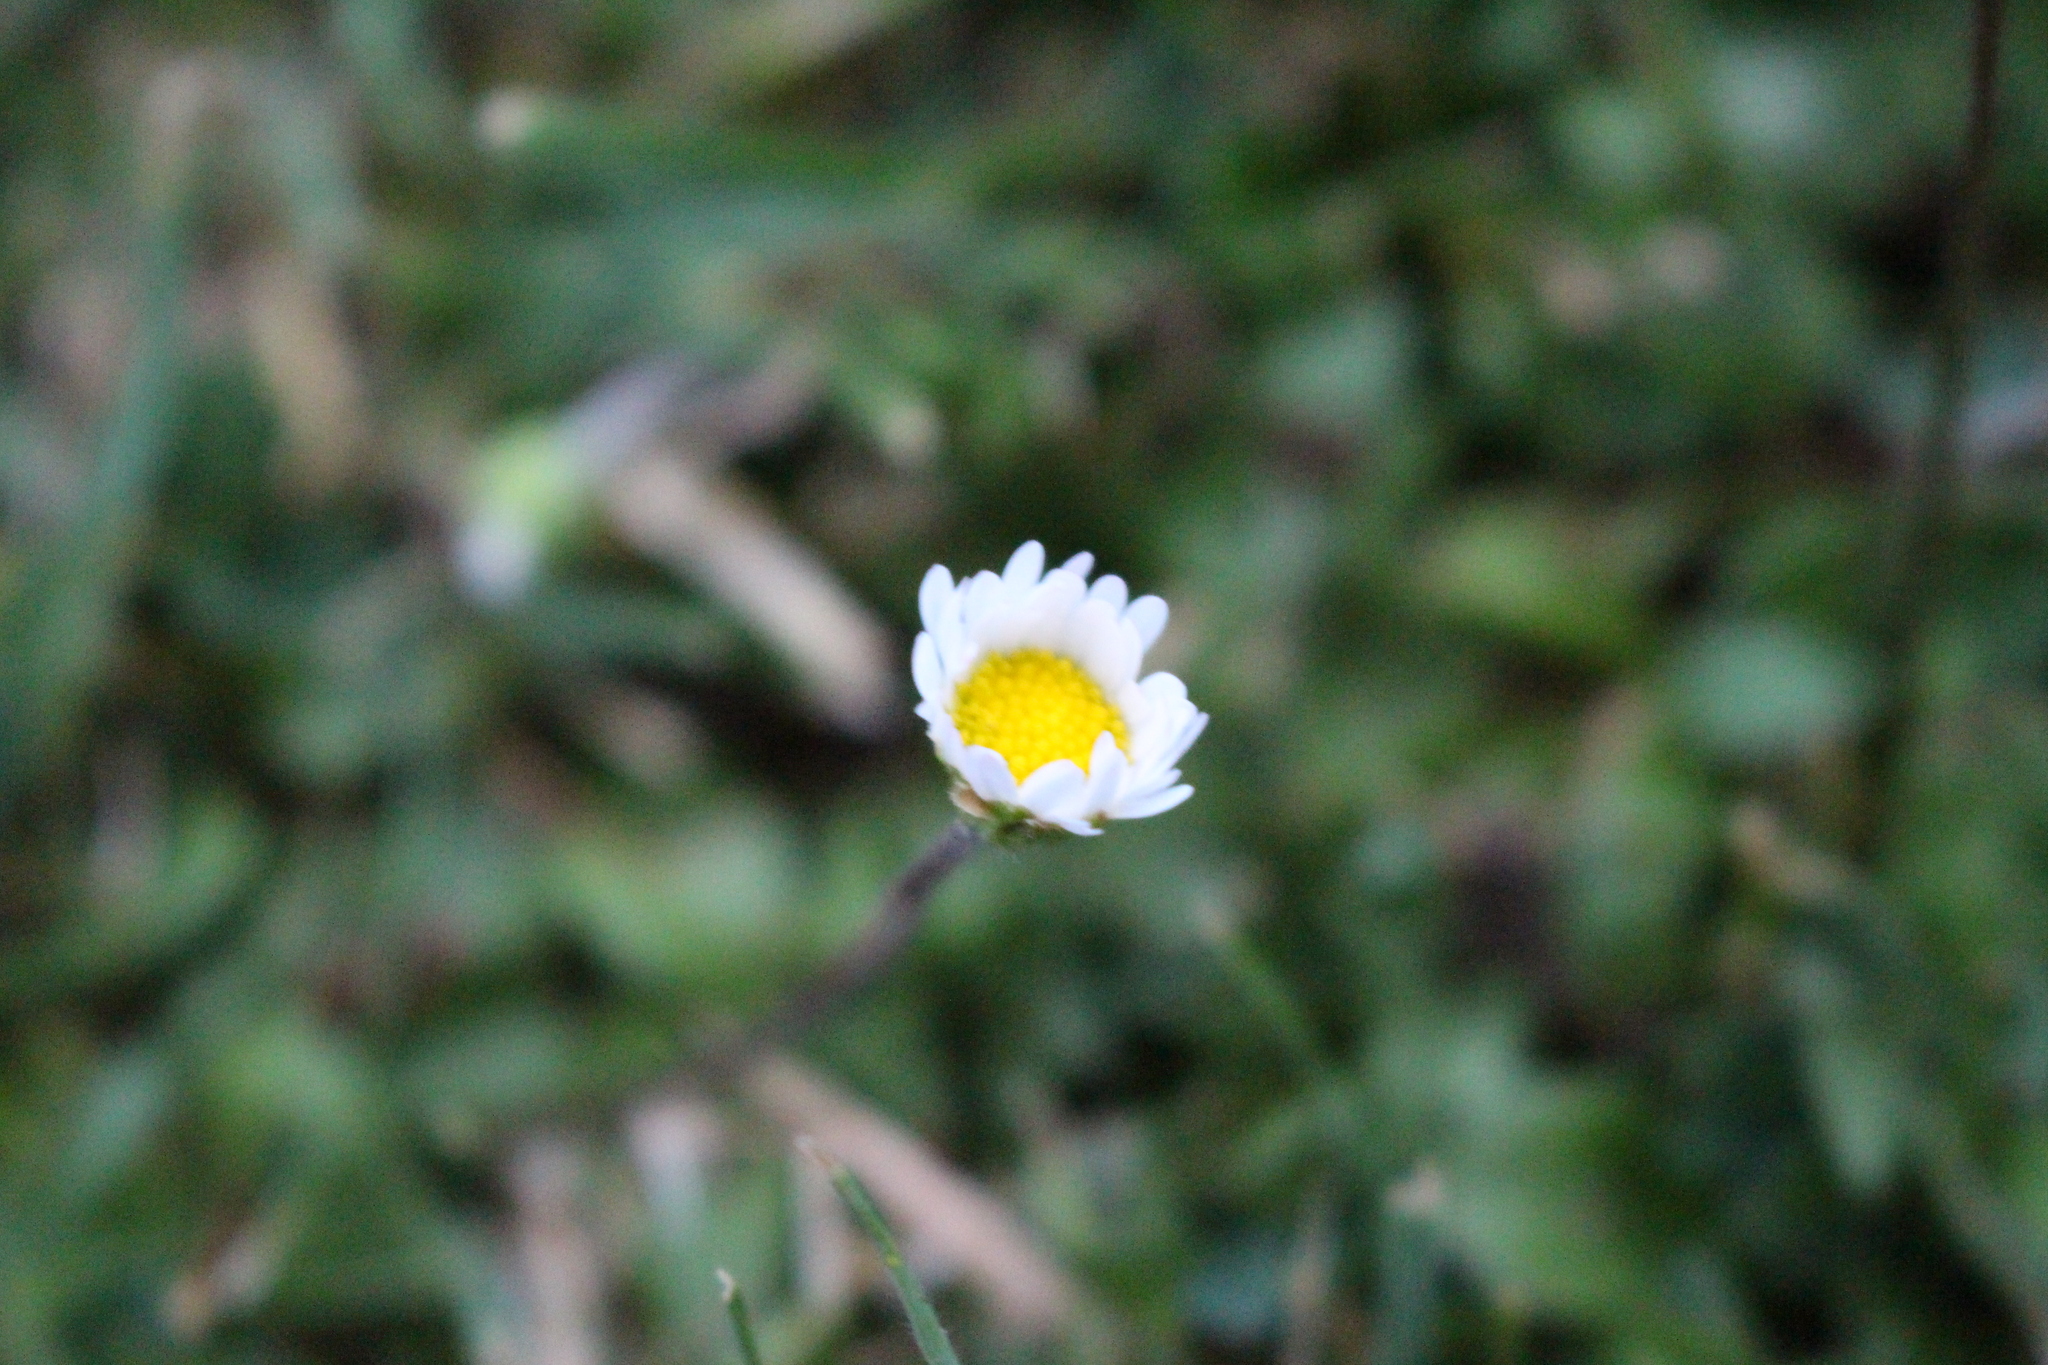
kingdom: Plantae
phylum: Tracheophyta
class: Magnoliopsida
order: Asterales
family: Asteraceae
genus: Bellis
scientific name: Bellis perennis
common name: Lawndaisy
